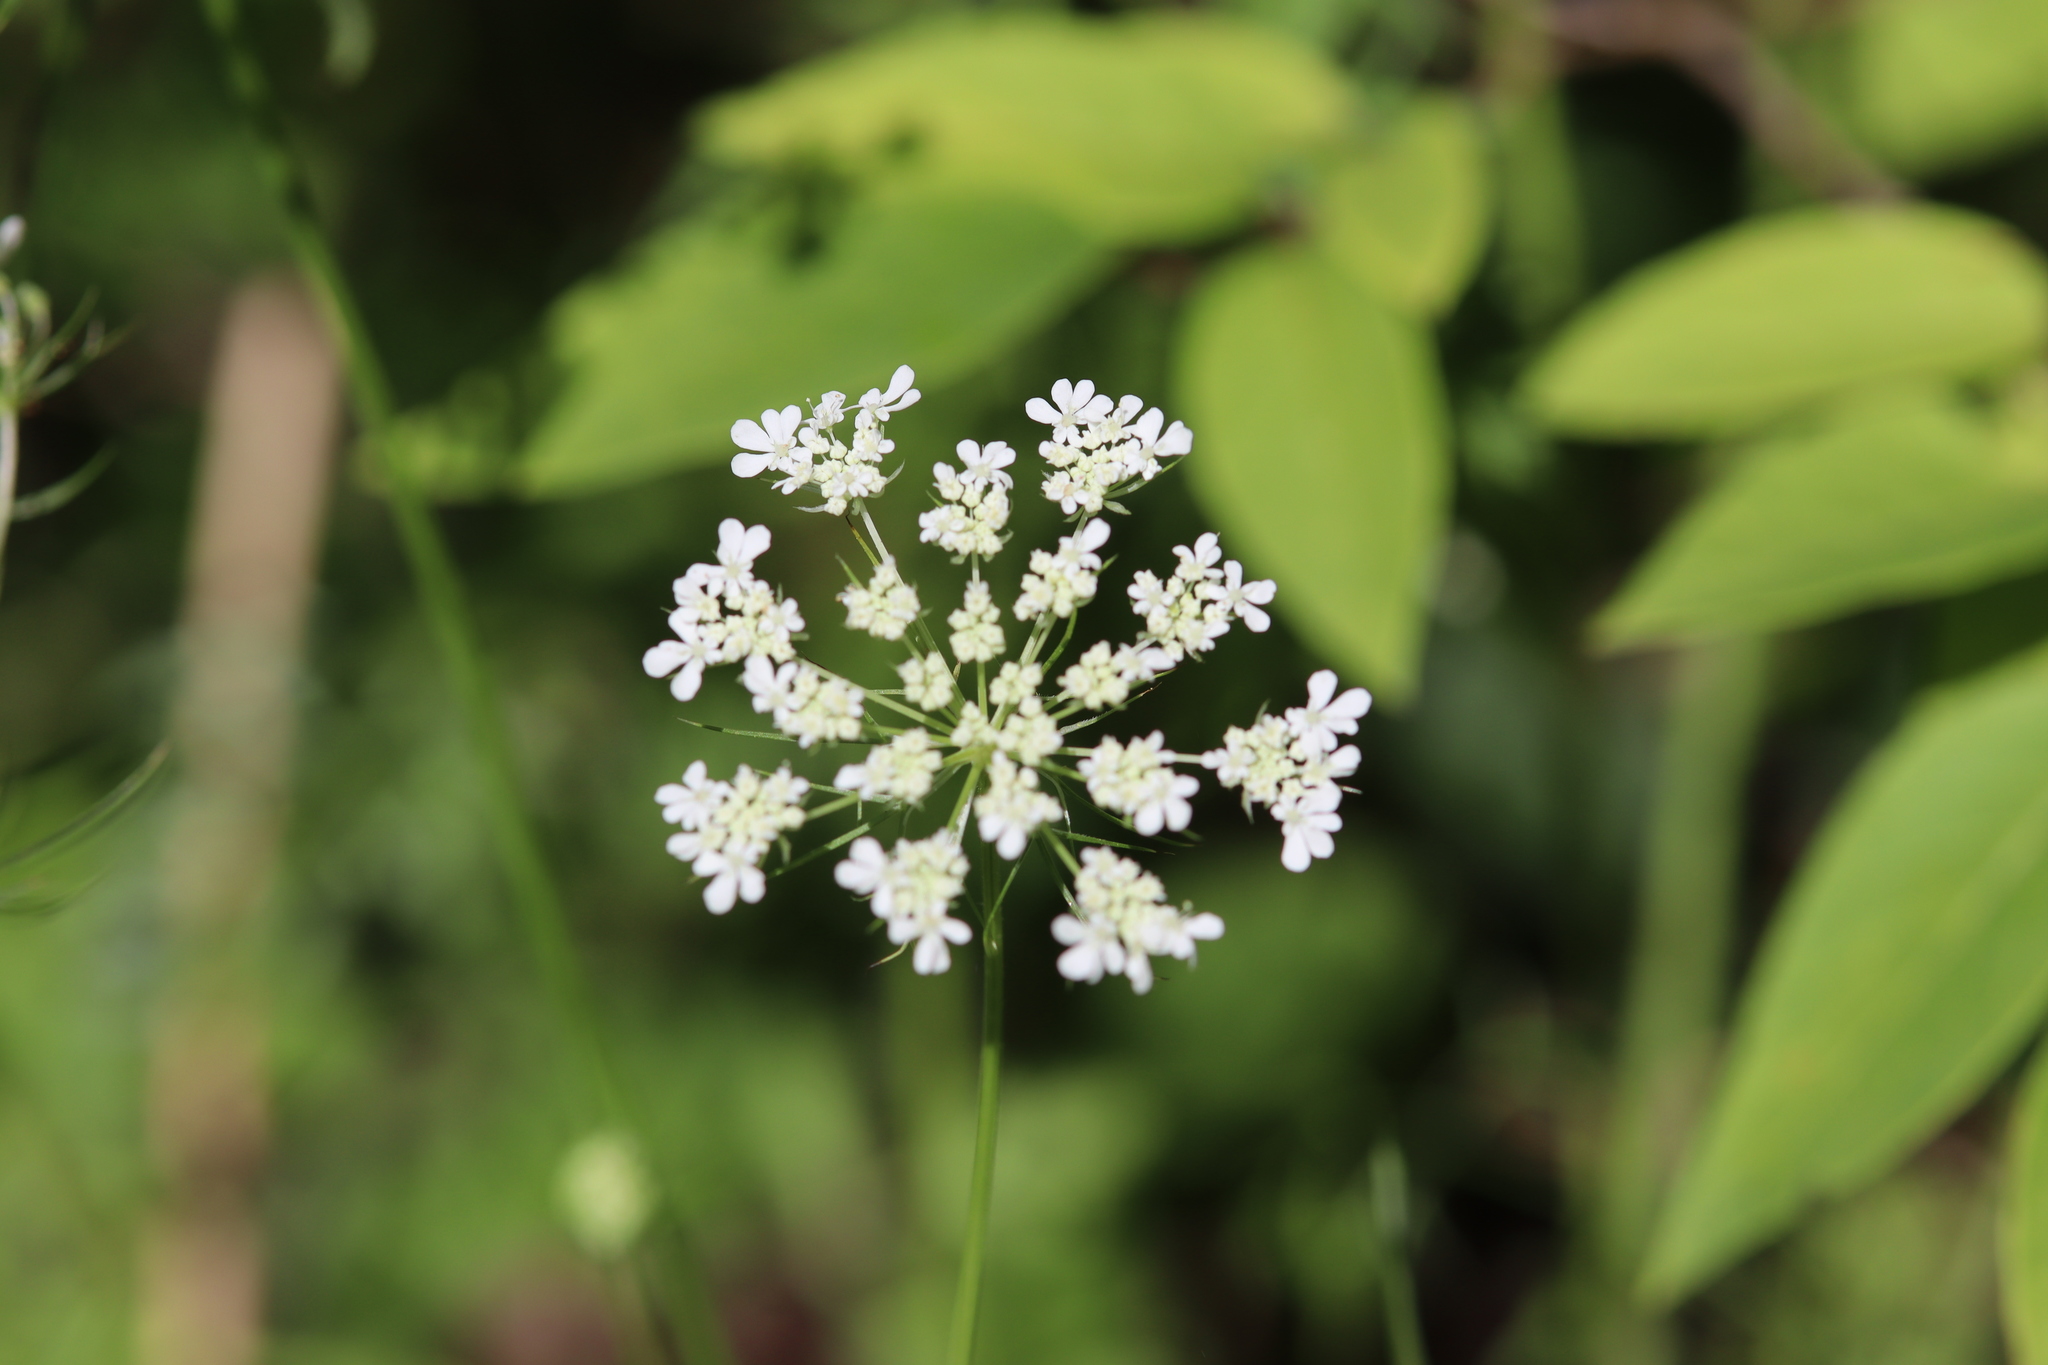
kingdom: Plantae
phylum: Tracheophyta
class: Magnoliopsida
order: Apiales
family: Apiaceae
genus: Daucus
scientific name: Daucus carota
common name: Wild carrot
